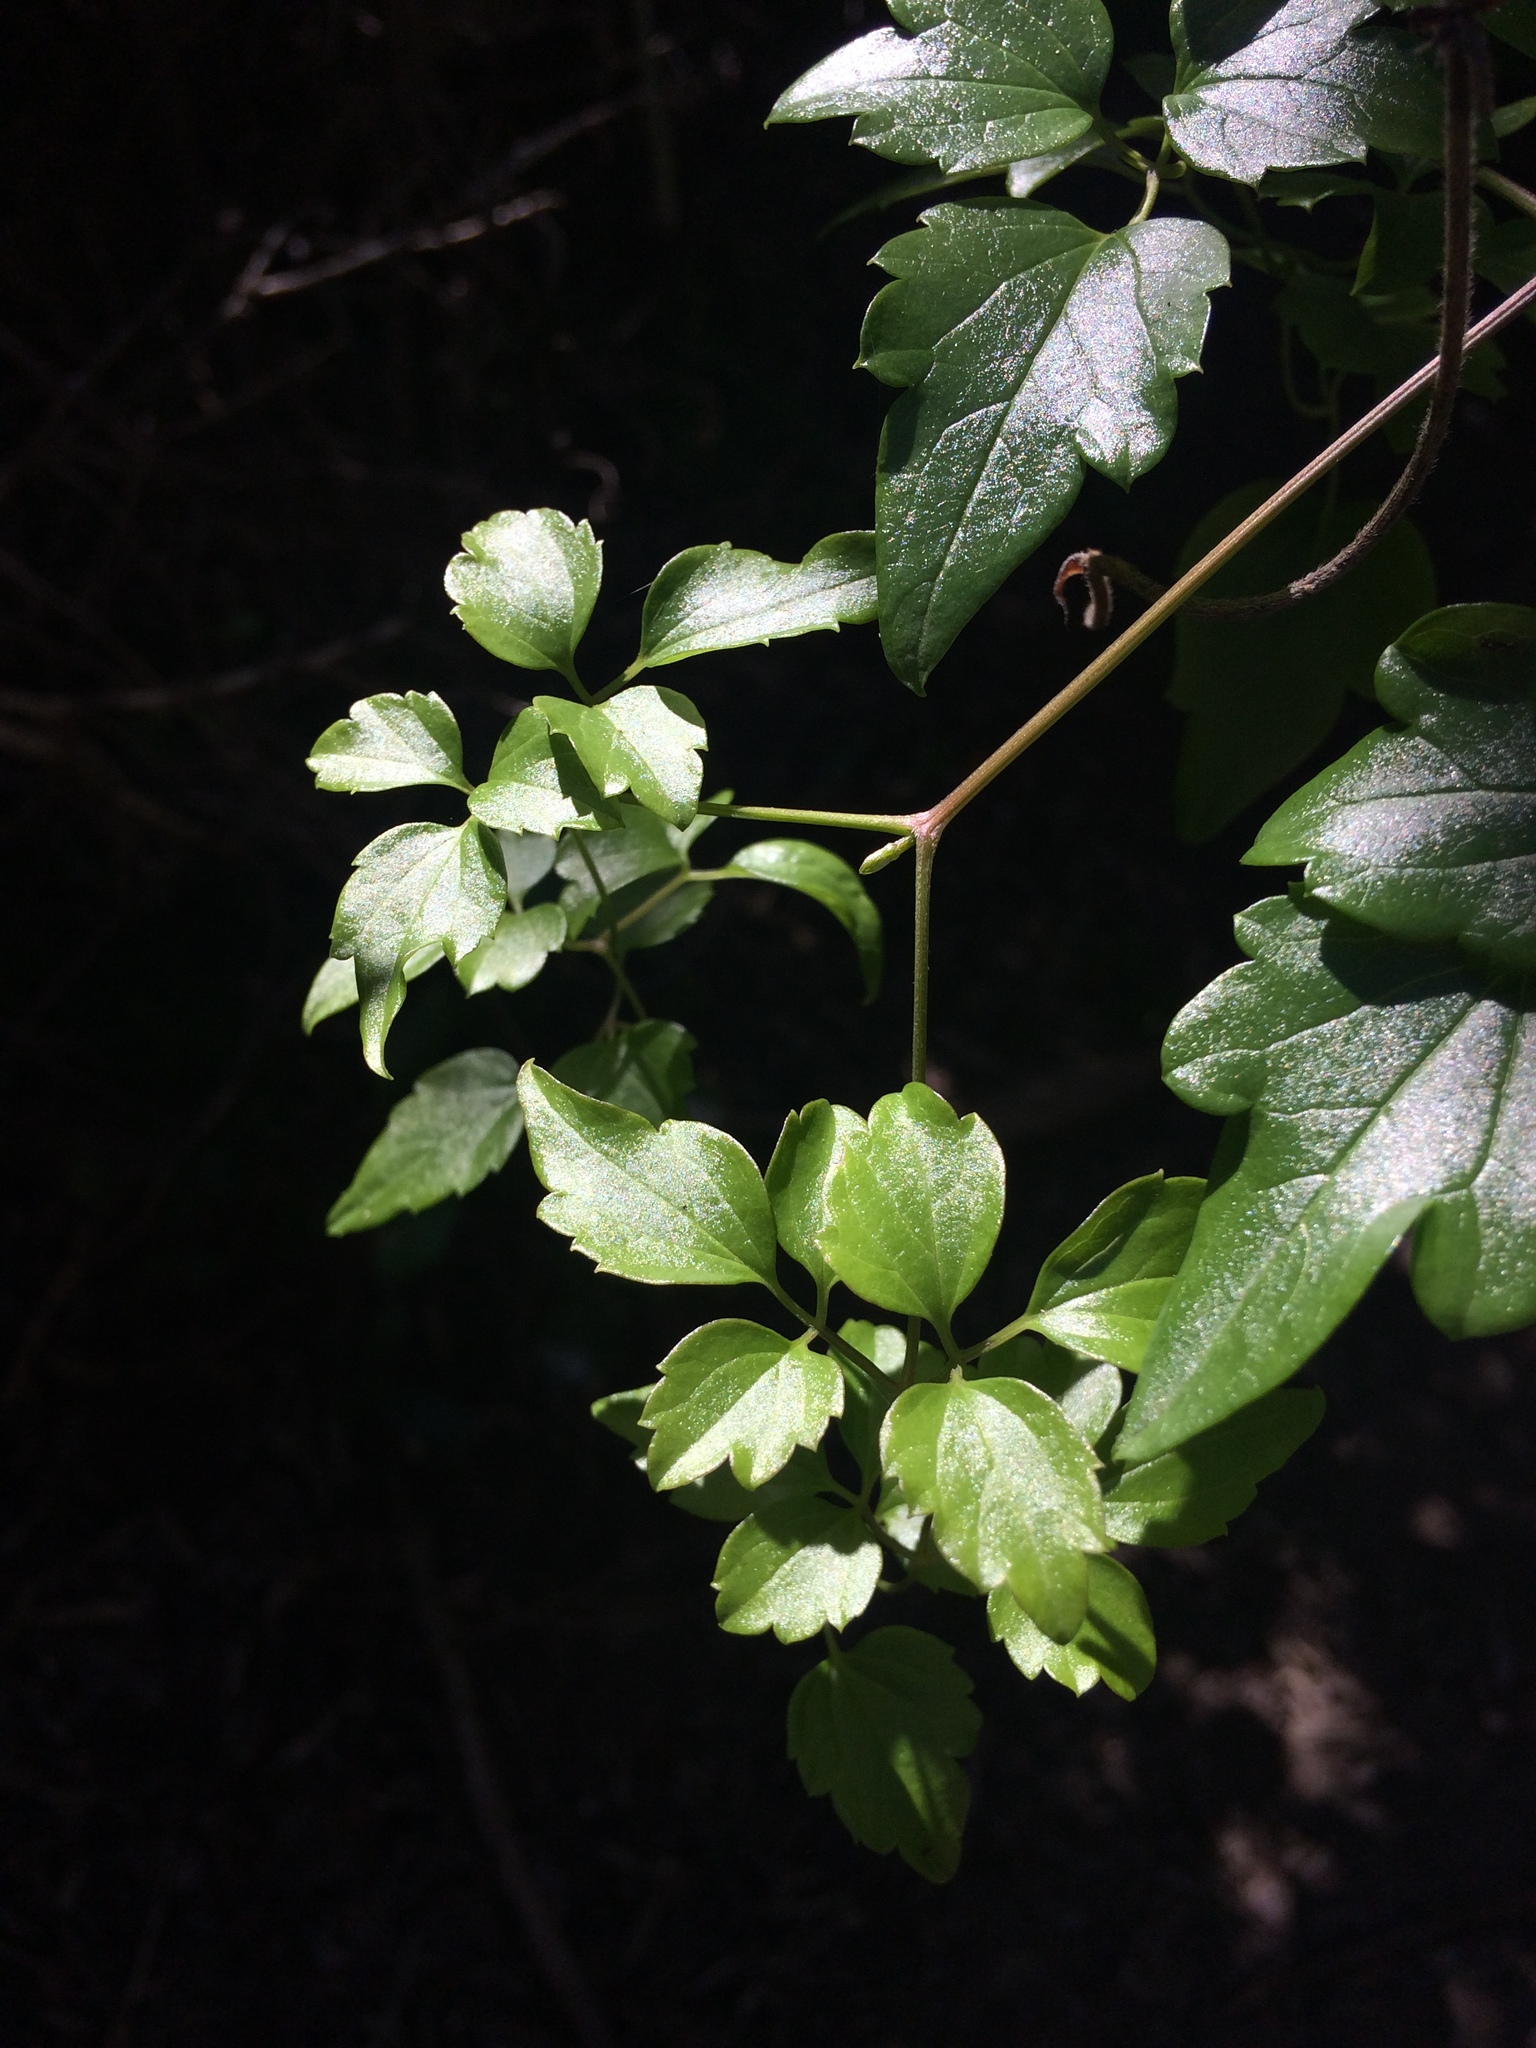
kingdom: Plantae
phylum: Tracheophyta
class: Magnoliopsida
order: Ranunculales
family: Ranunculaceae
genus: Clematis
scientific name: Clematis brachiata
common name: Traveler's-joy
